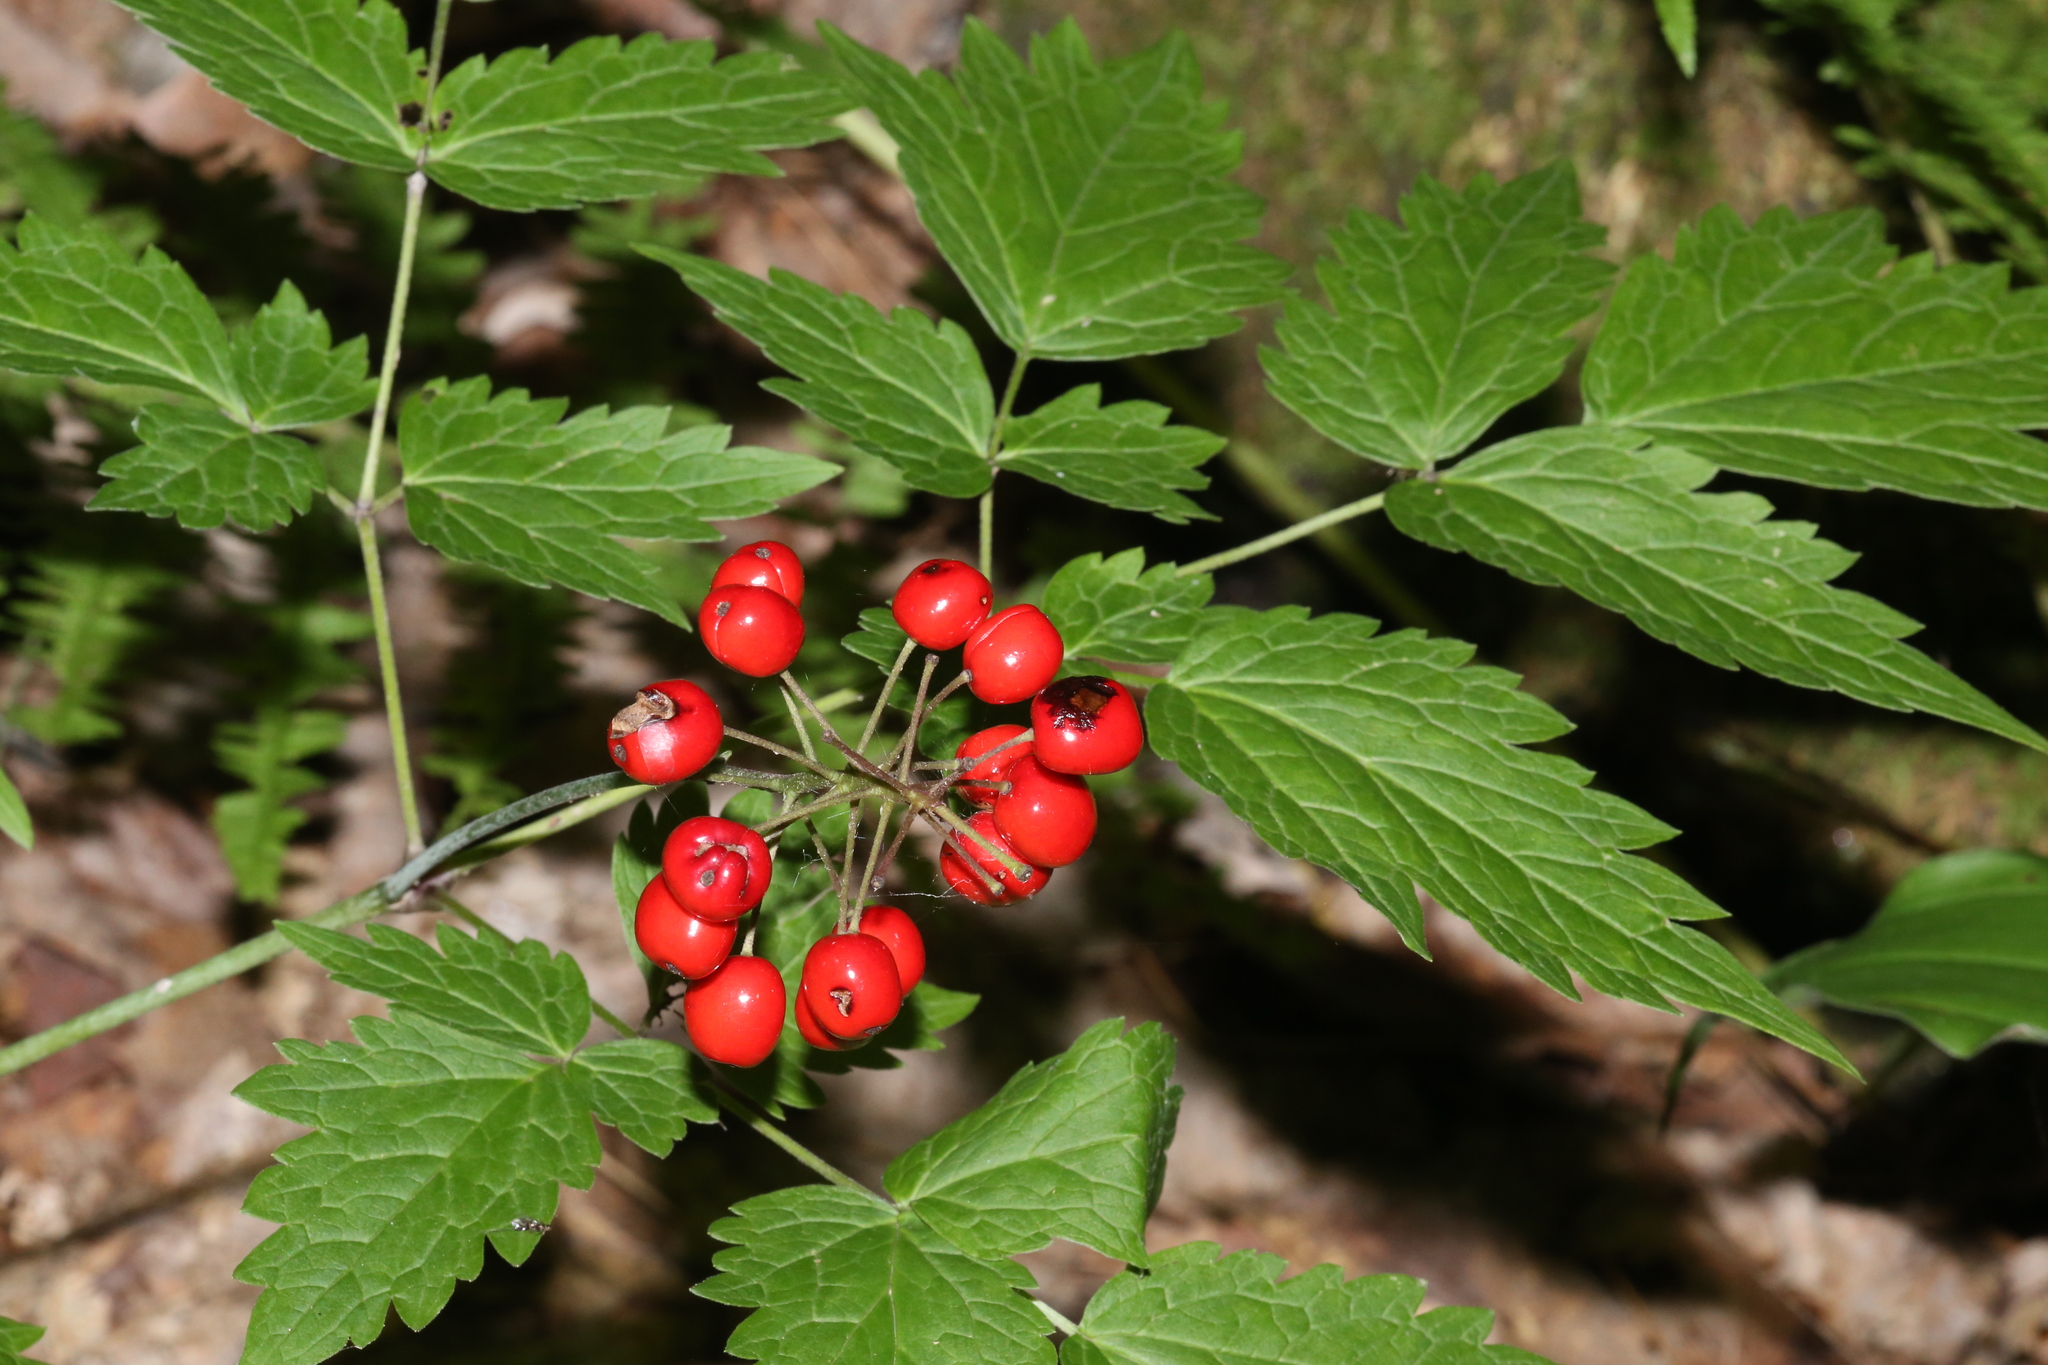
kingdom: Plantae
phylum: Tracheophyta
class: Magnoliopsida
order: Ranunculales
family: Ranunculaceae
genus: Actaea
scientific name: Actaea rubra
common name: Red baneberry
